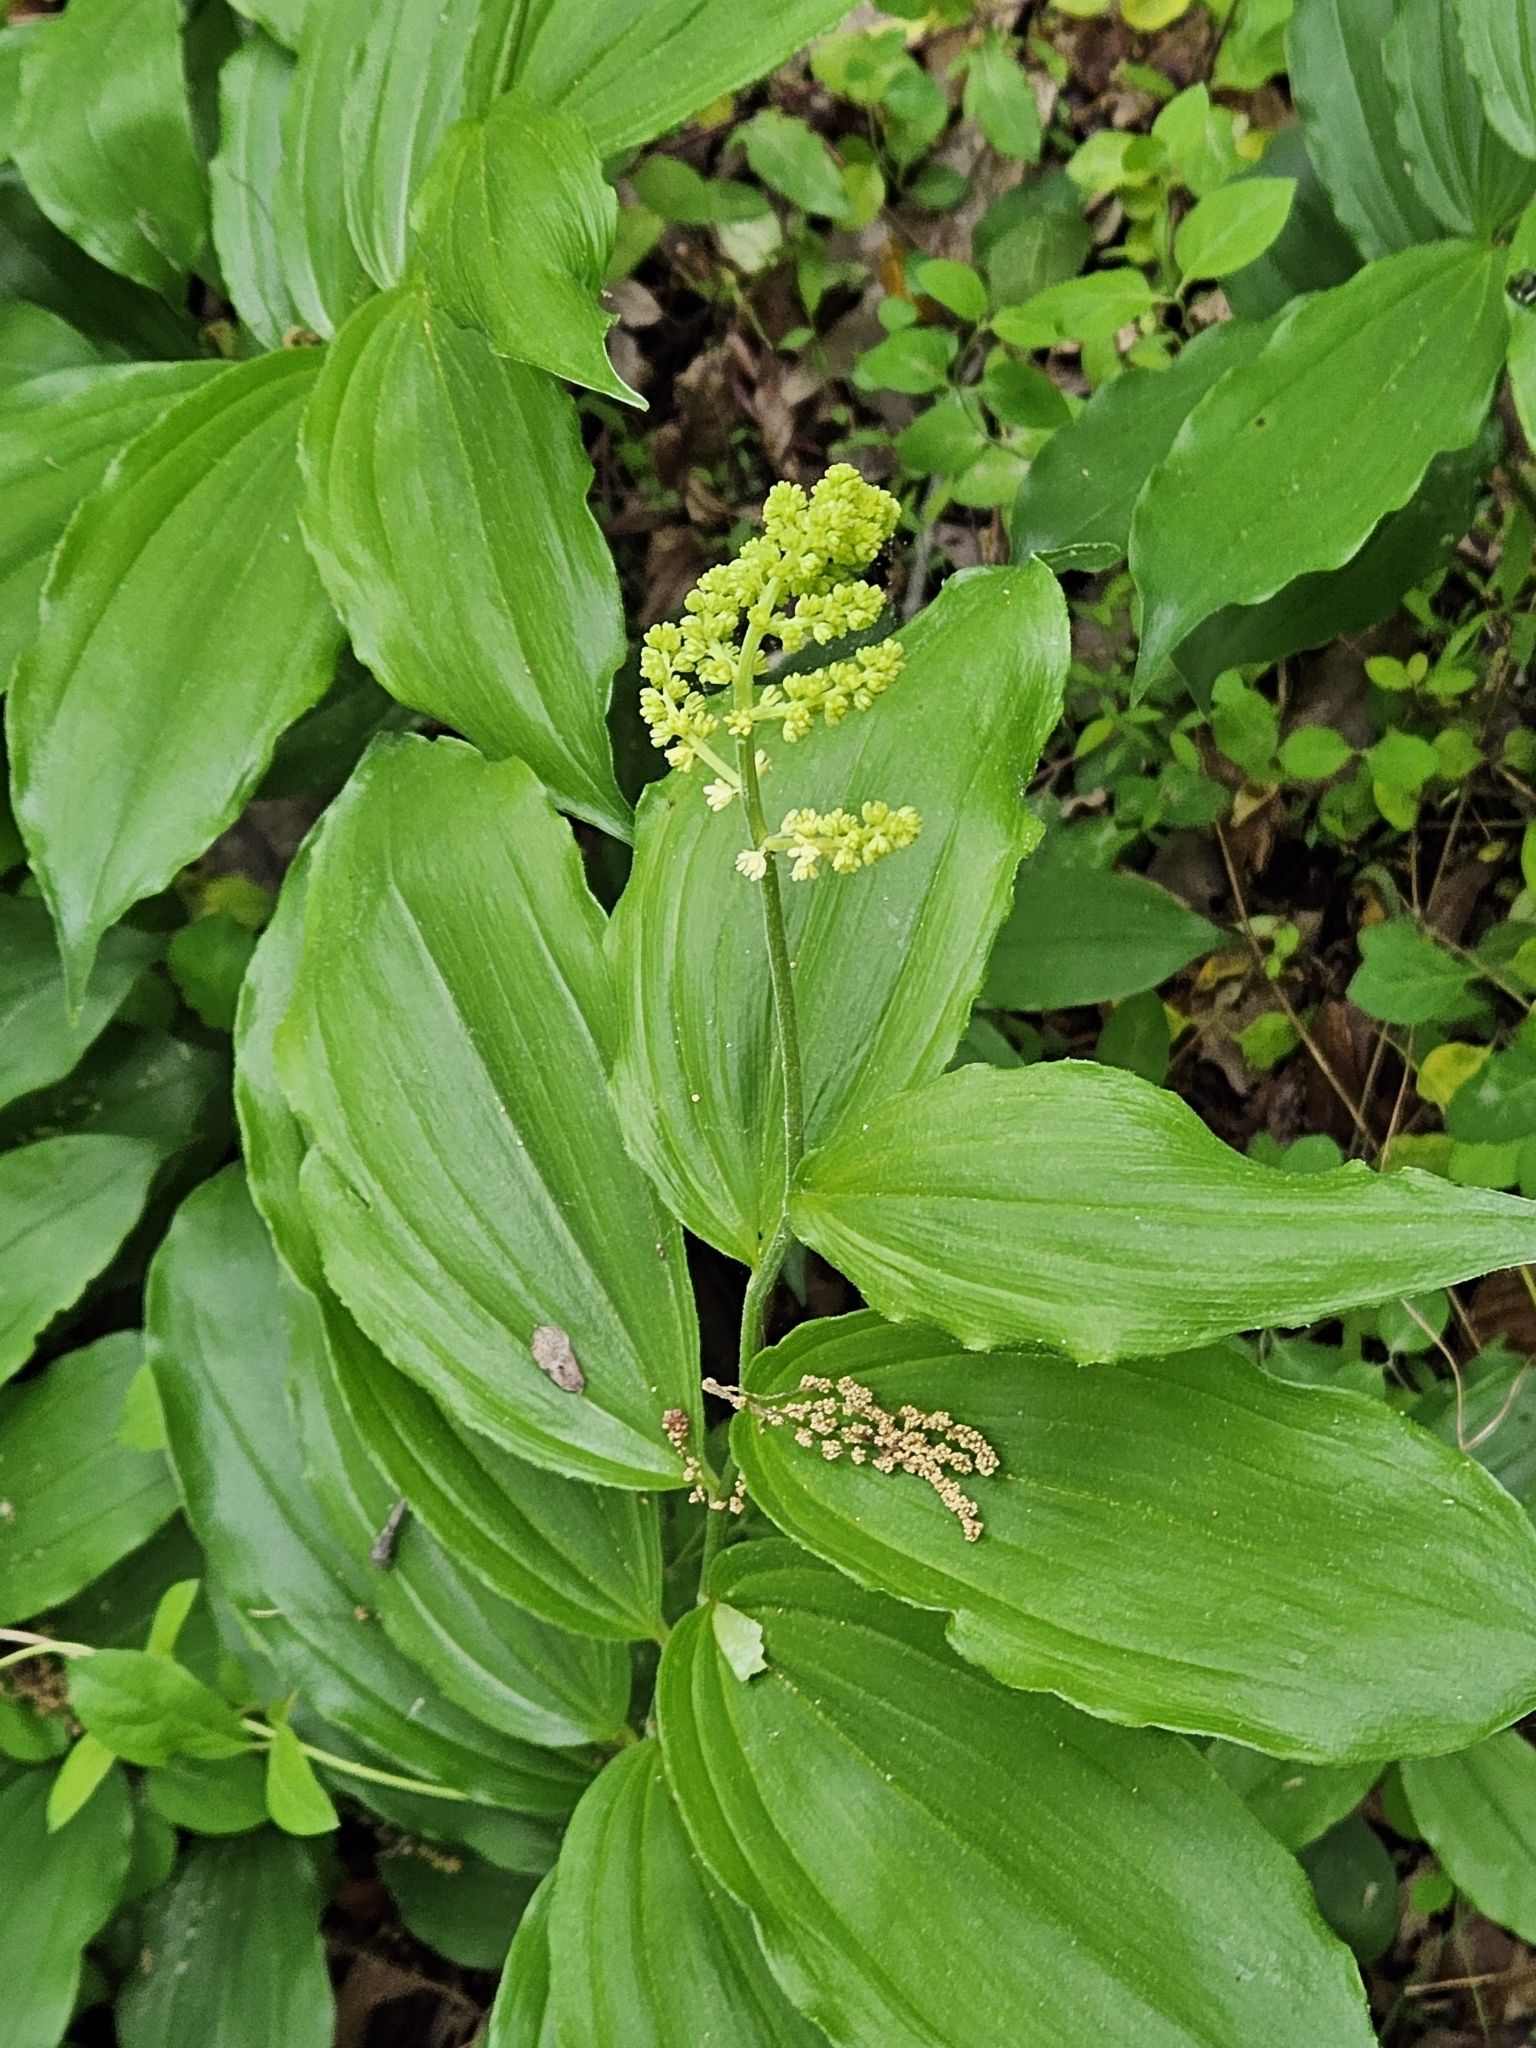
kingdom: Plantae
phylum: Tracheophyta
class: Liliopsida
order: Asparagales
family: Asparagaceae
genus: Maianthemum
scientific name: Maianthemum racemosum
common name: False spikenard
